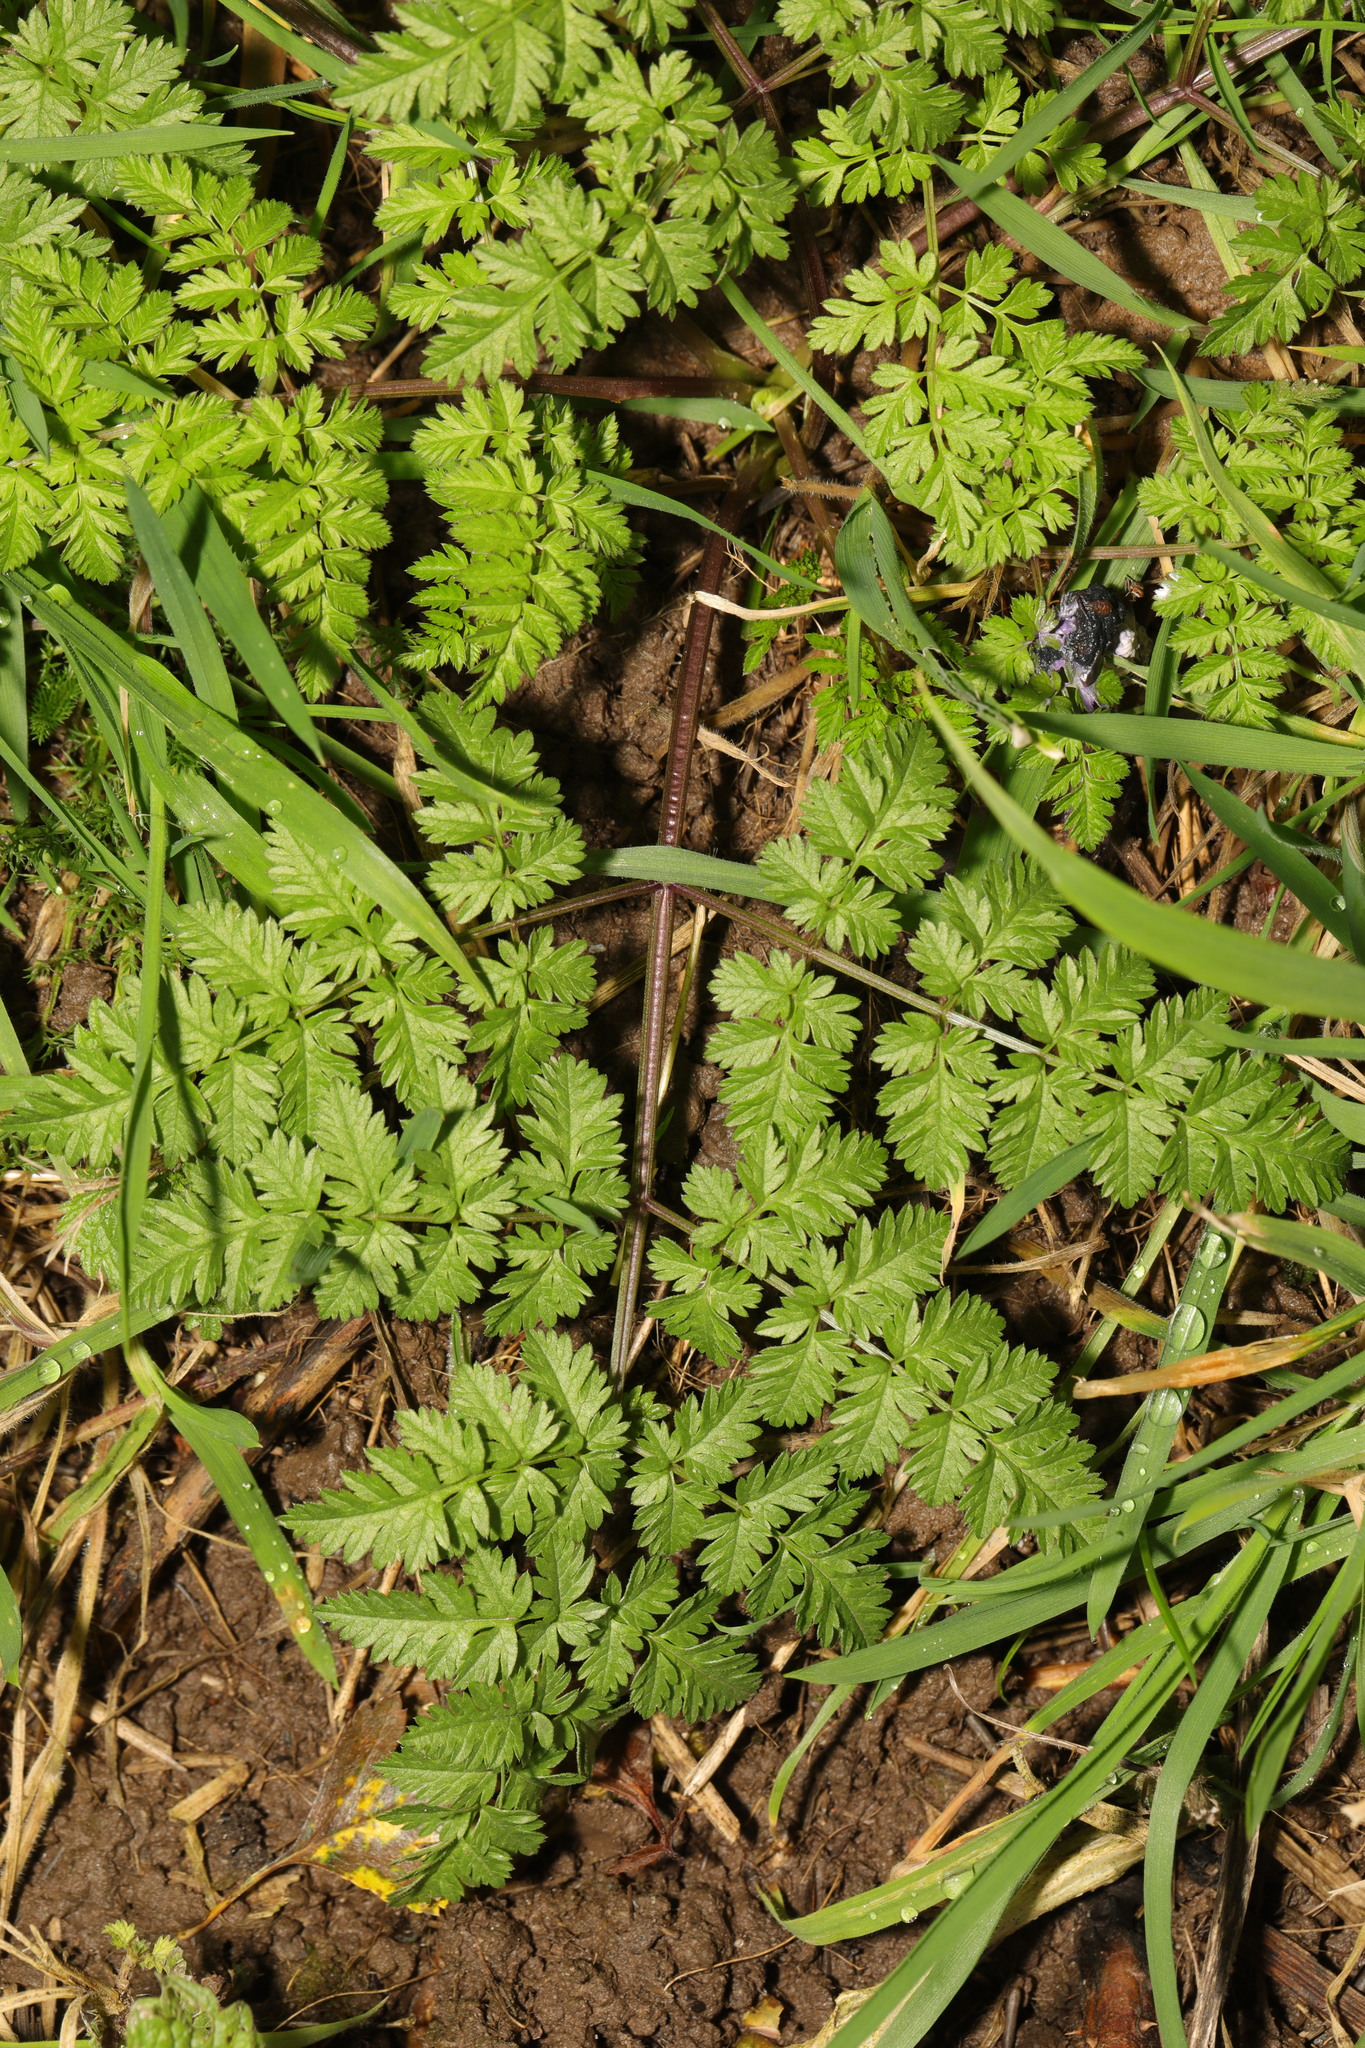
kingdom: Plantae
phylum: Tracheophyta
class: Magnoliopsida
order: Apiales
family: Apiaceae
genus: Anthriscus
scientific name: Anthriscus sylvestris
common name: Cow parsley
